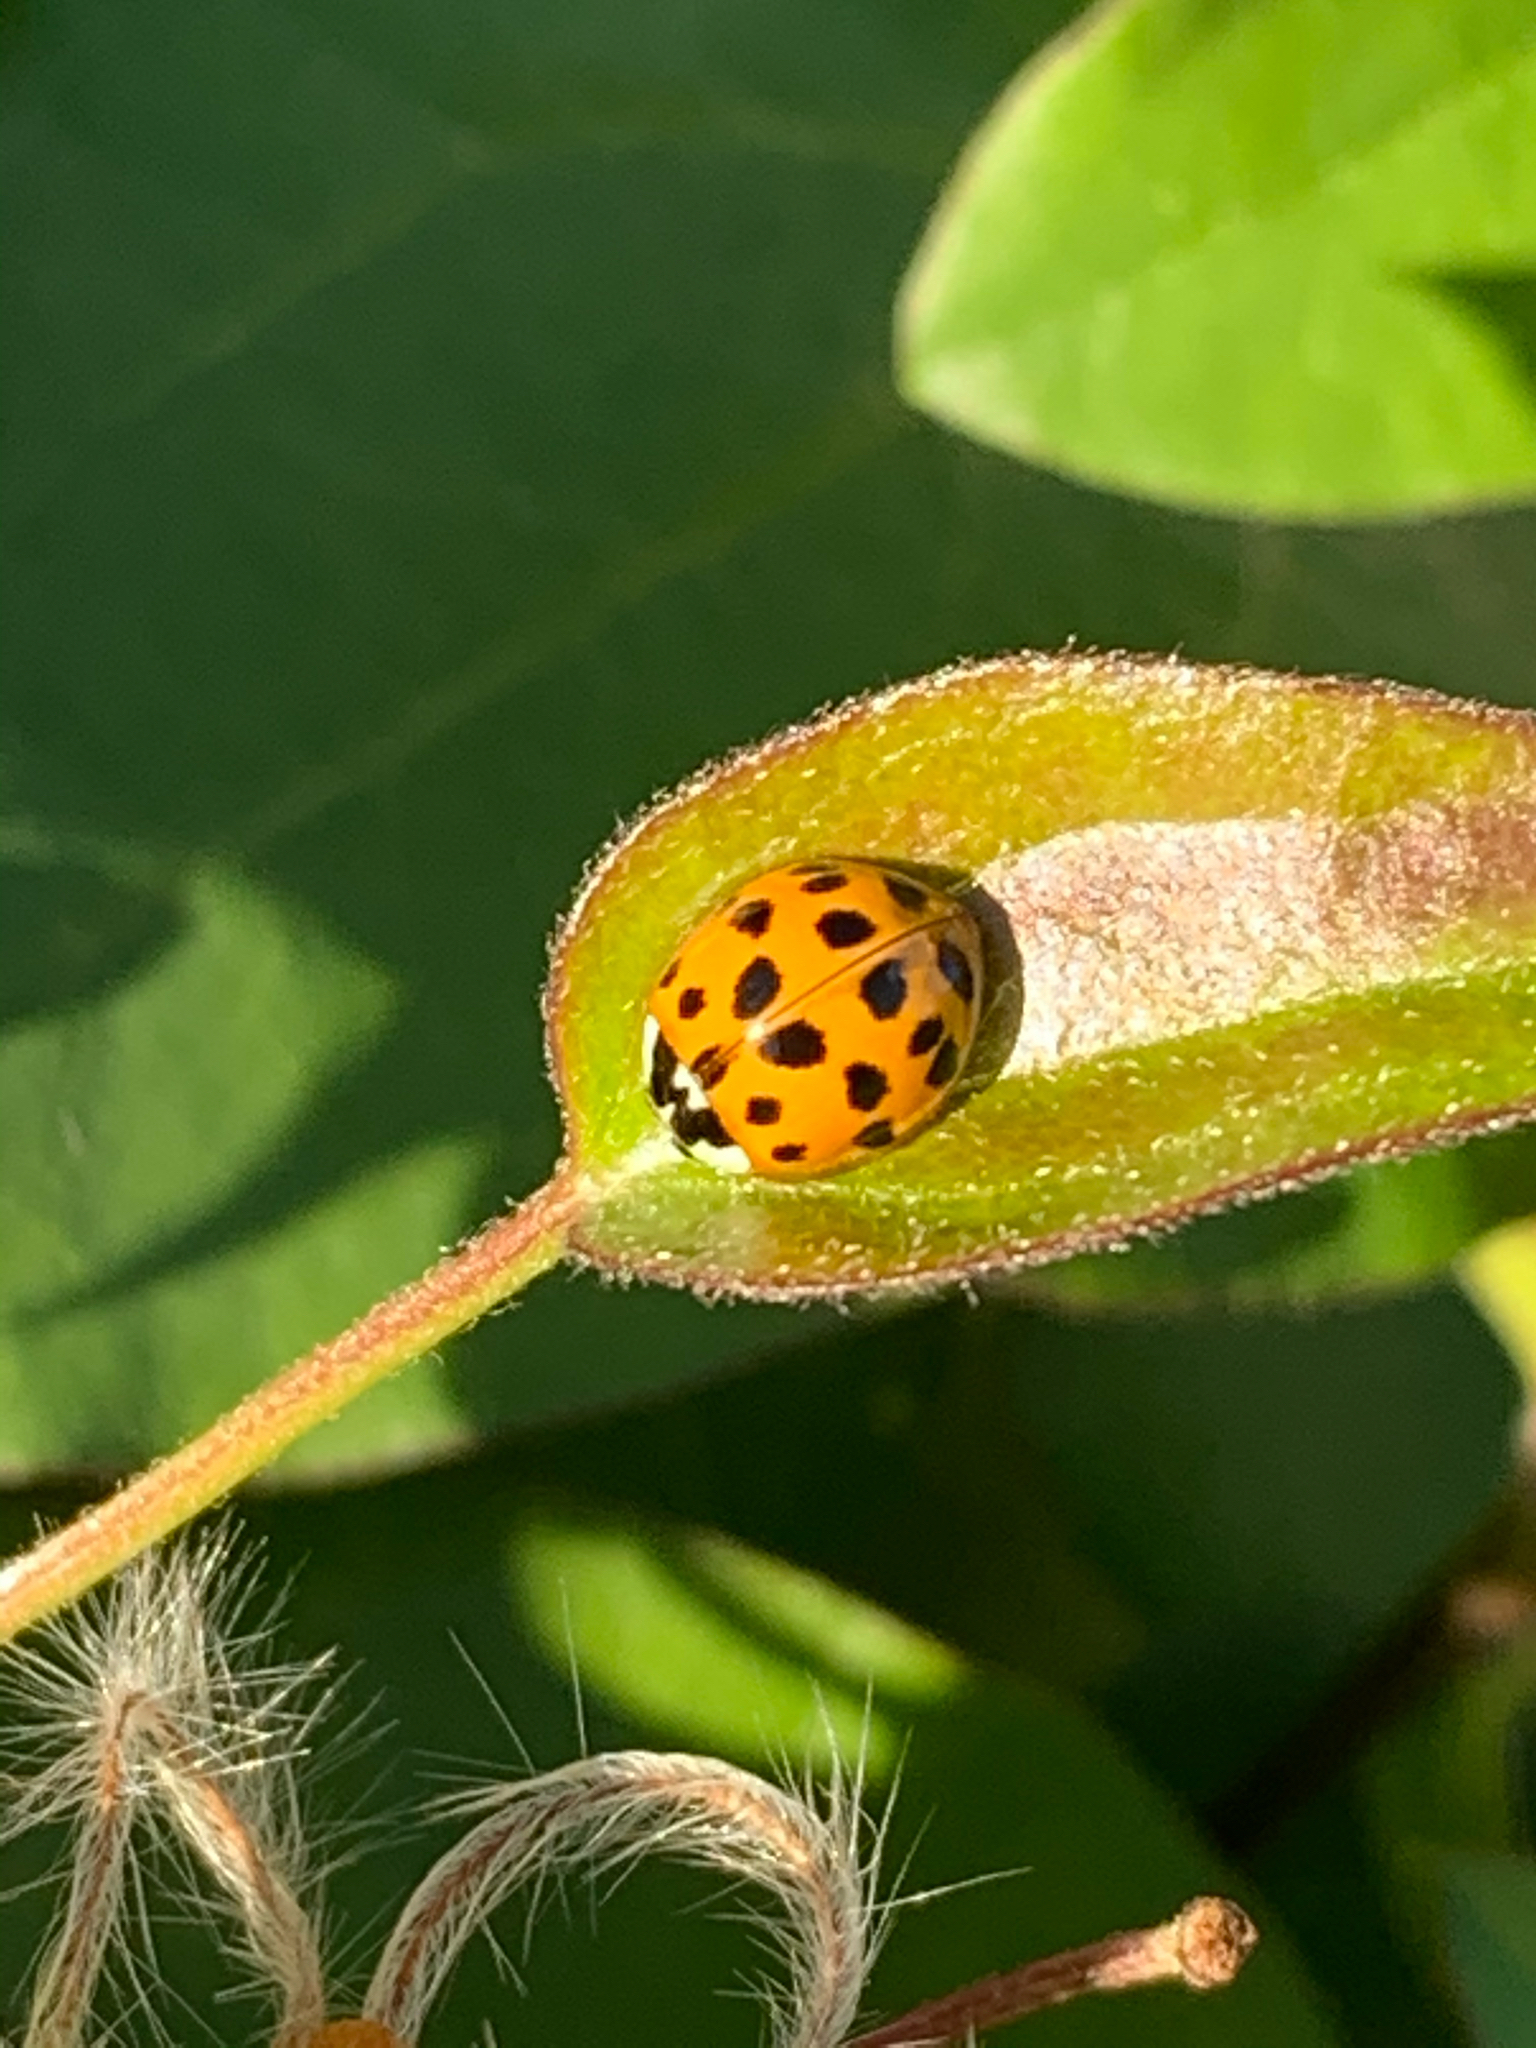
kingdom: Animalia
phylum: Arthropoda
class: Insecta
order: Coleoptera
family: Coccinellidae
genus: Harmonia
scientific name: Harmonia axyridis
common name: Harlequin ladybird
